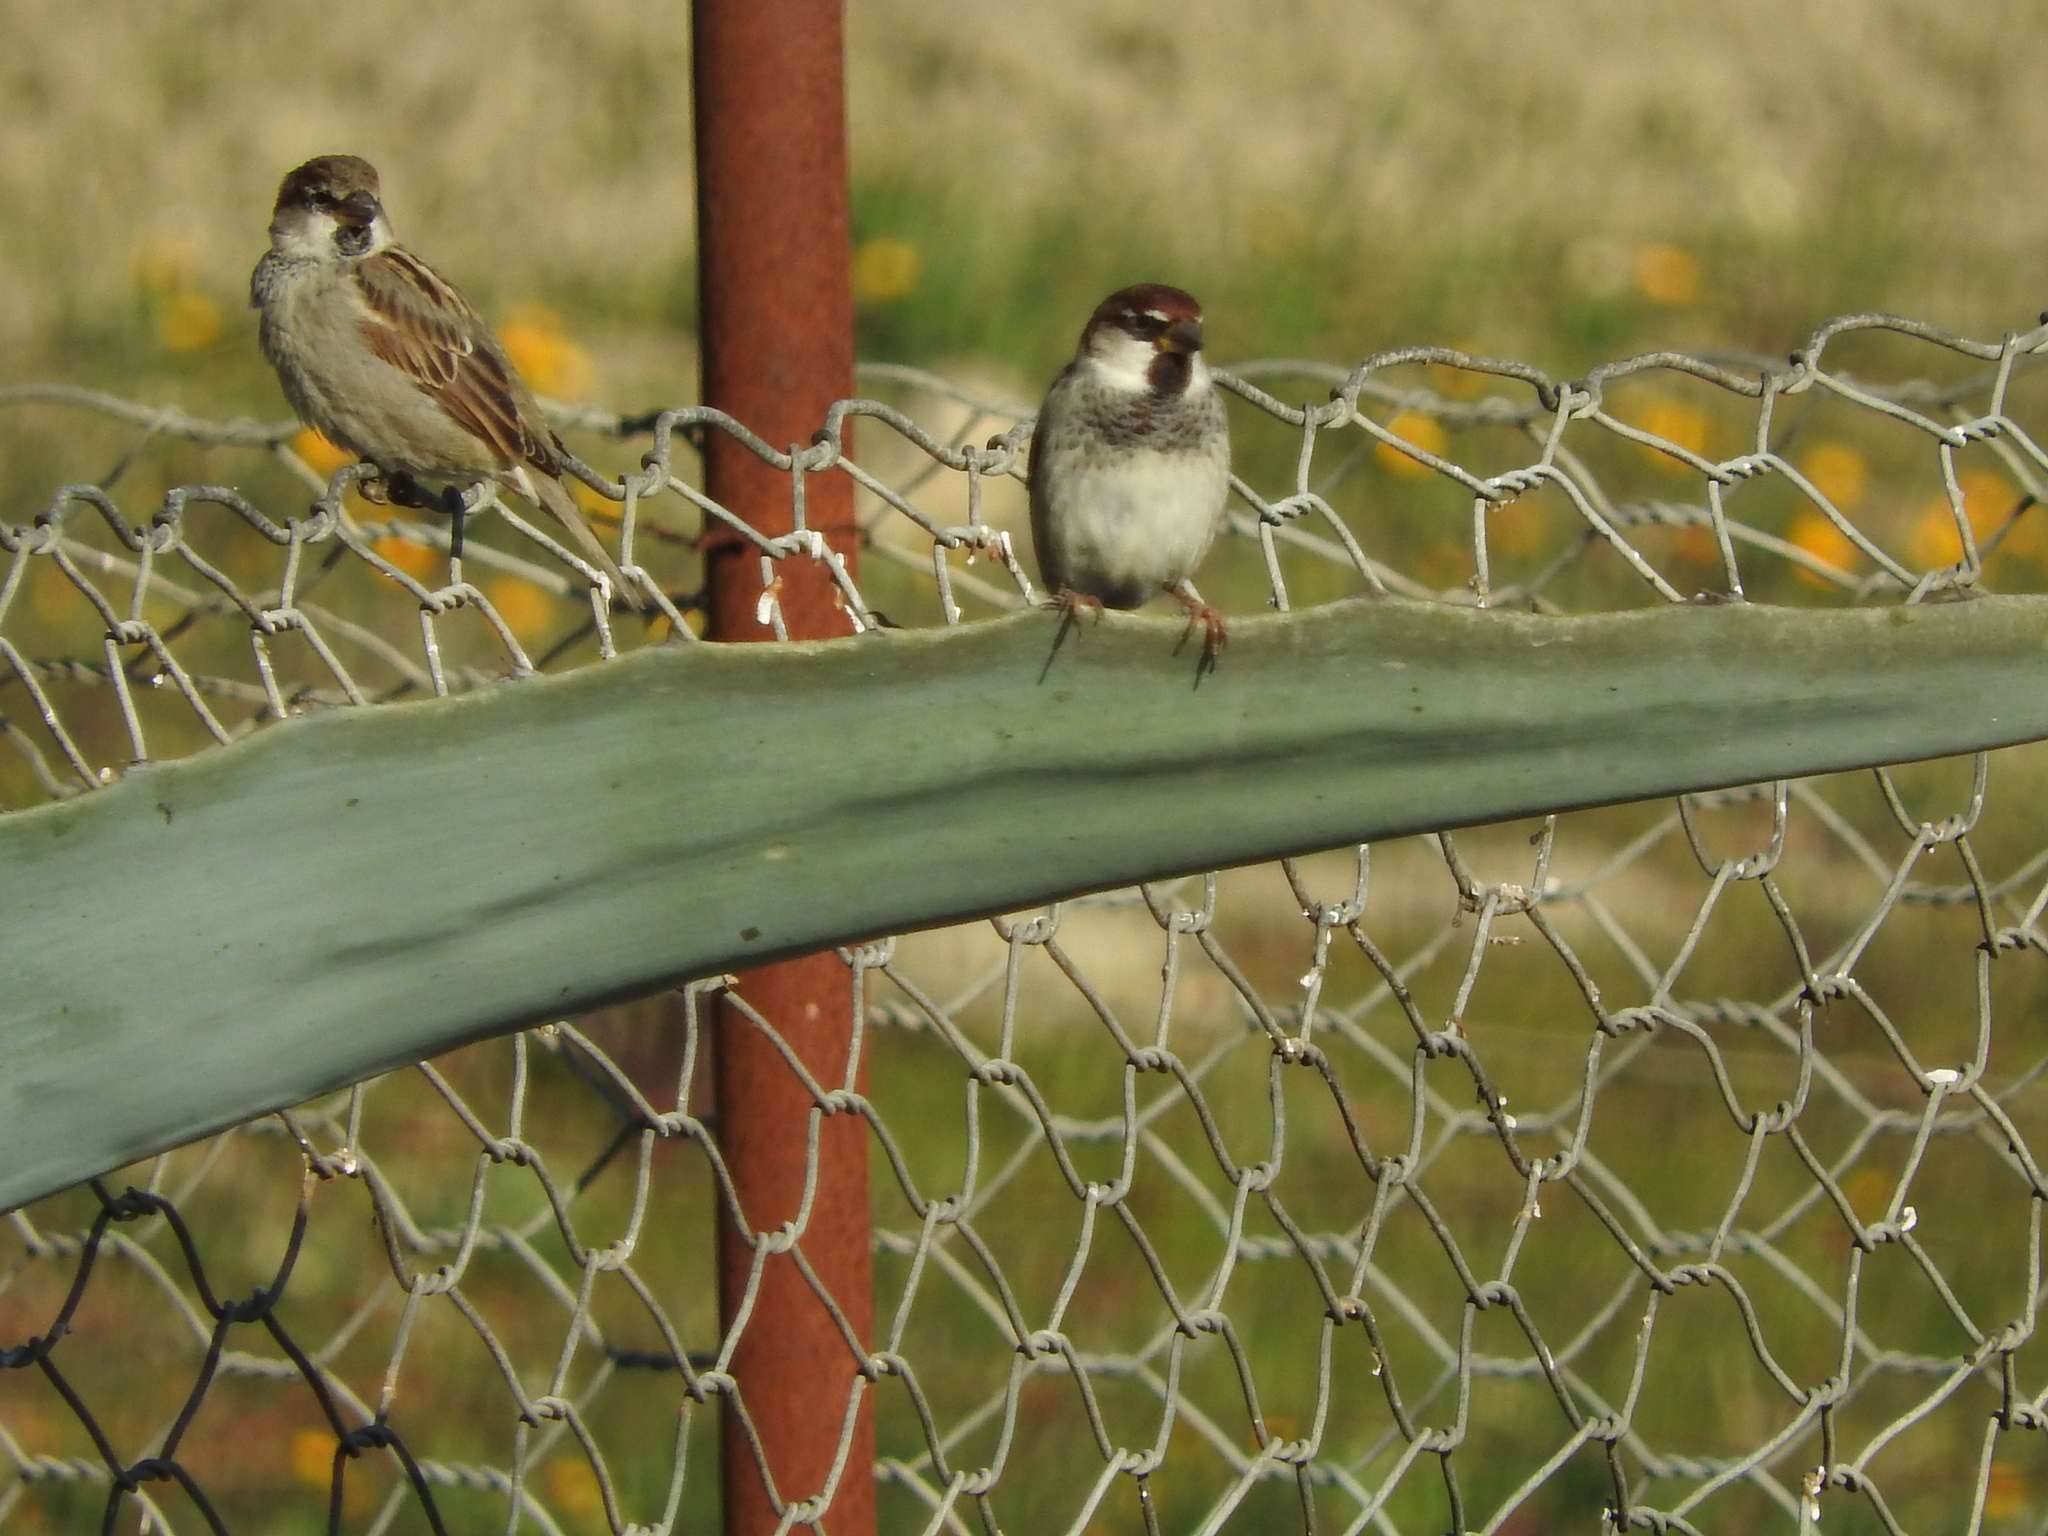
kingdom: Animalia
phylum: Chordata
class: Aves
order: Passeriformes
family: Passeridae
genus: Passer
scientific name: Passer italiae
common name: Italian sparrow
